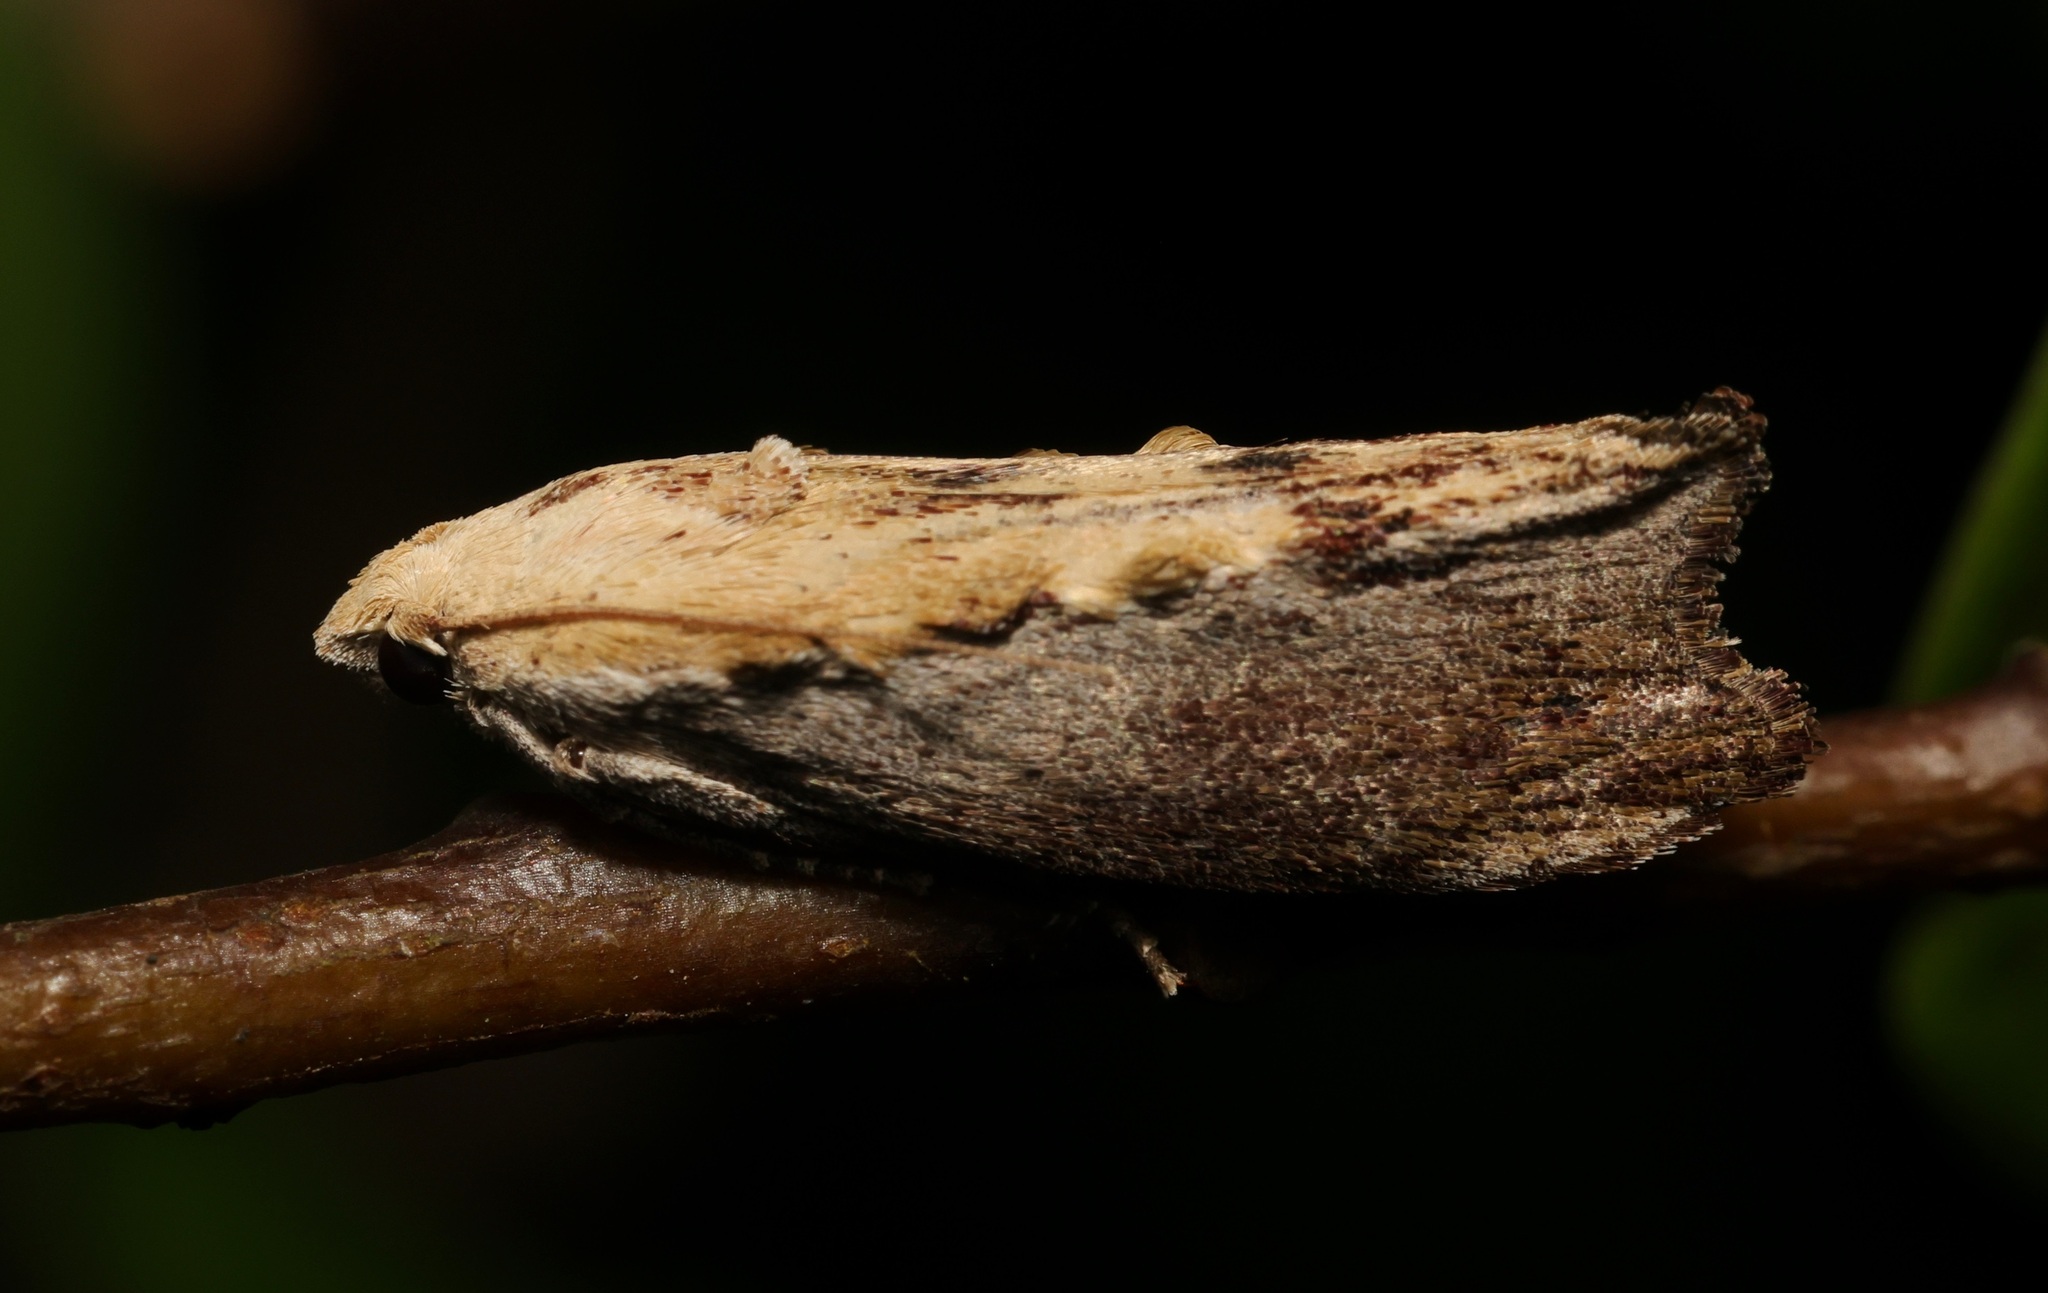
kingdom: Animalia
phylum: Arthropoda
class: Insecta
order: Lepidoptera
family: Pyralidae
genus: Galleria
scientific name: Galleria mellonella
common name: Greater wax moth
